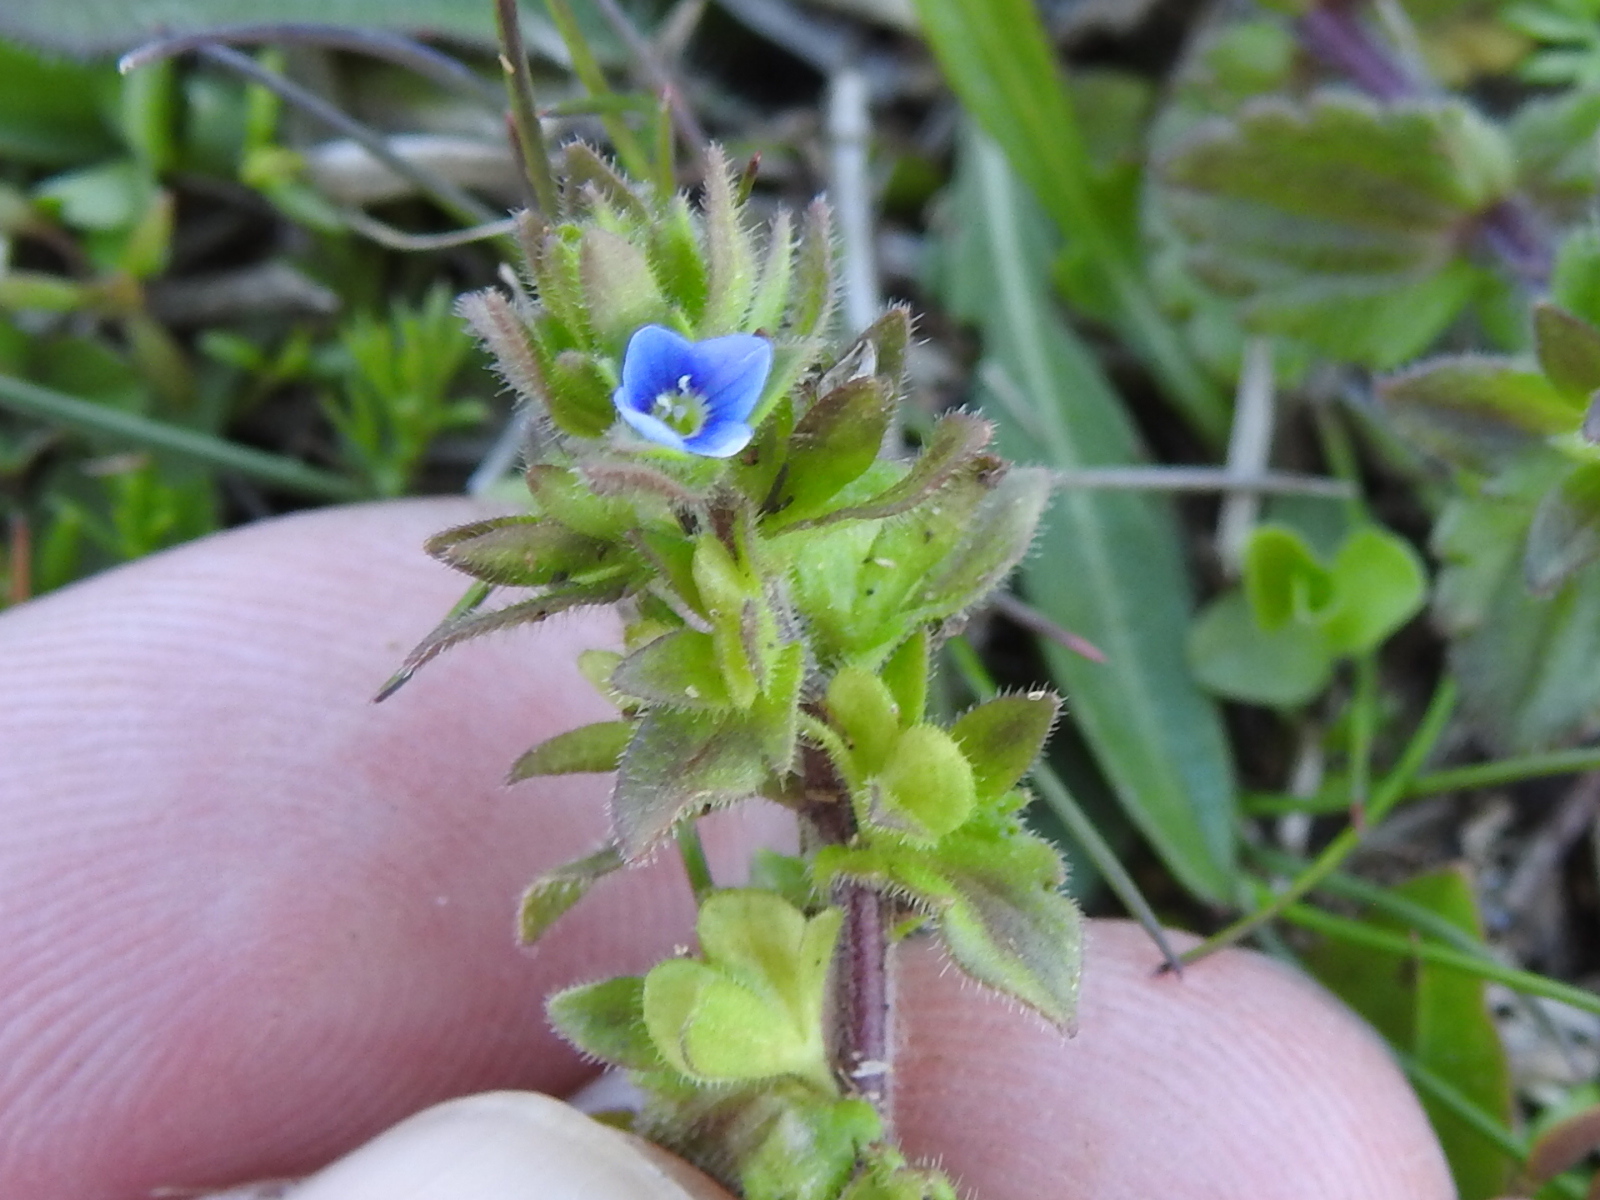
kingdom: Plantae
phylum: Tracheophyta
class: Magnoliopsida
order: Lamiales
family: Plantaginaceae
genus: Veronica
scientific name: Veronica arvensis
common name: Corn speedwell
